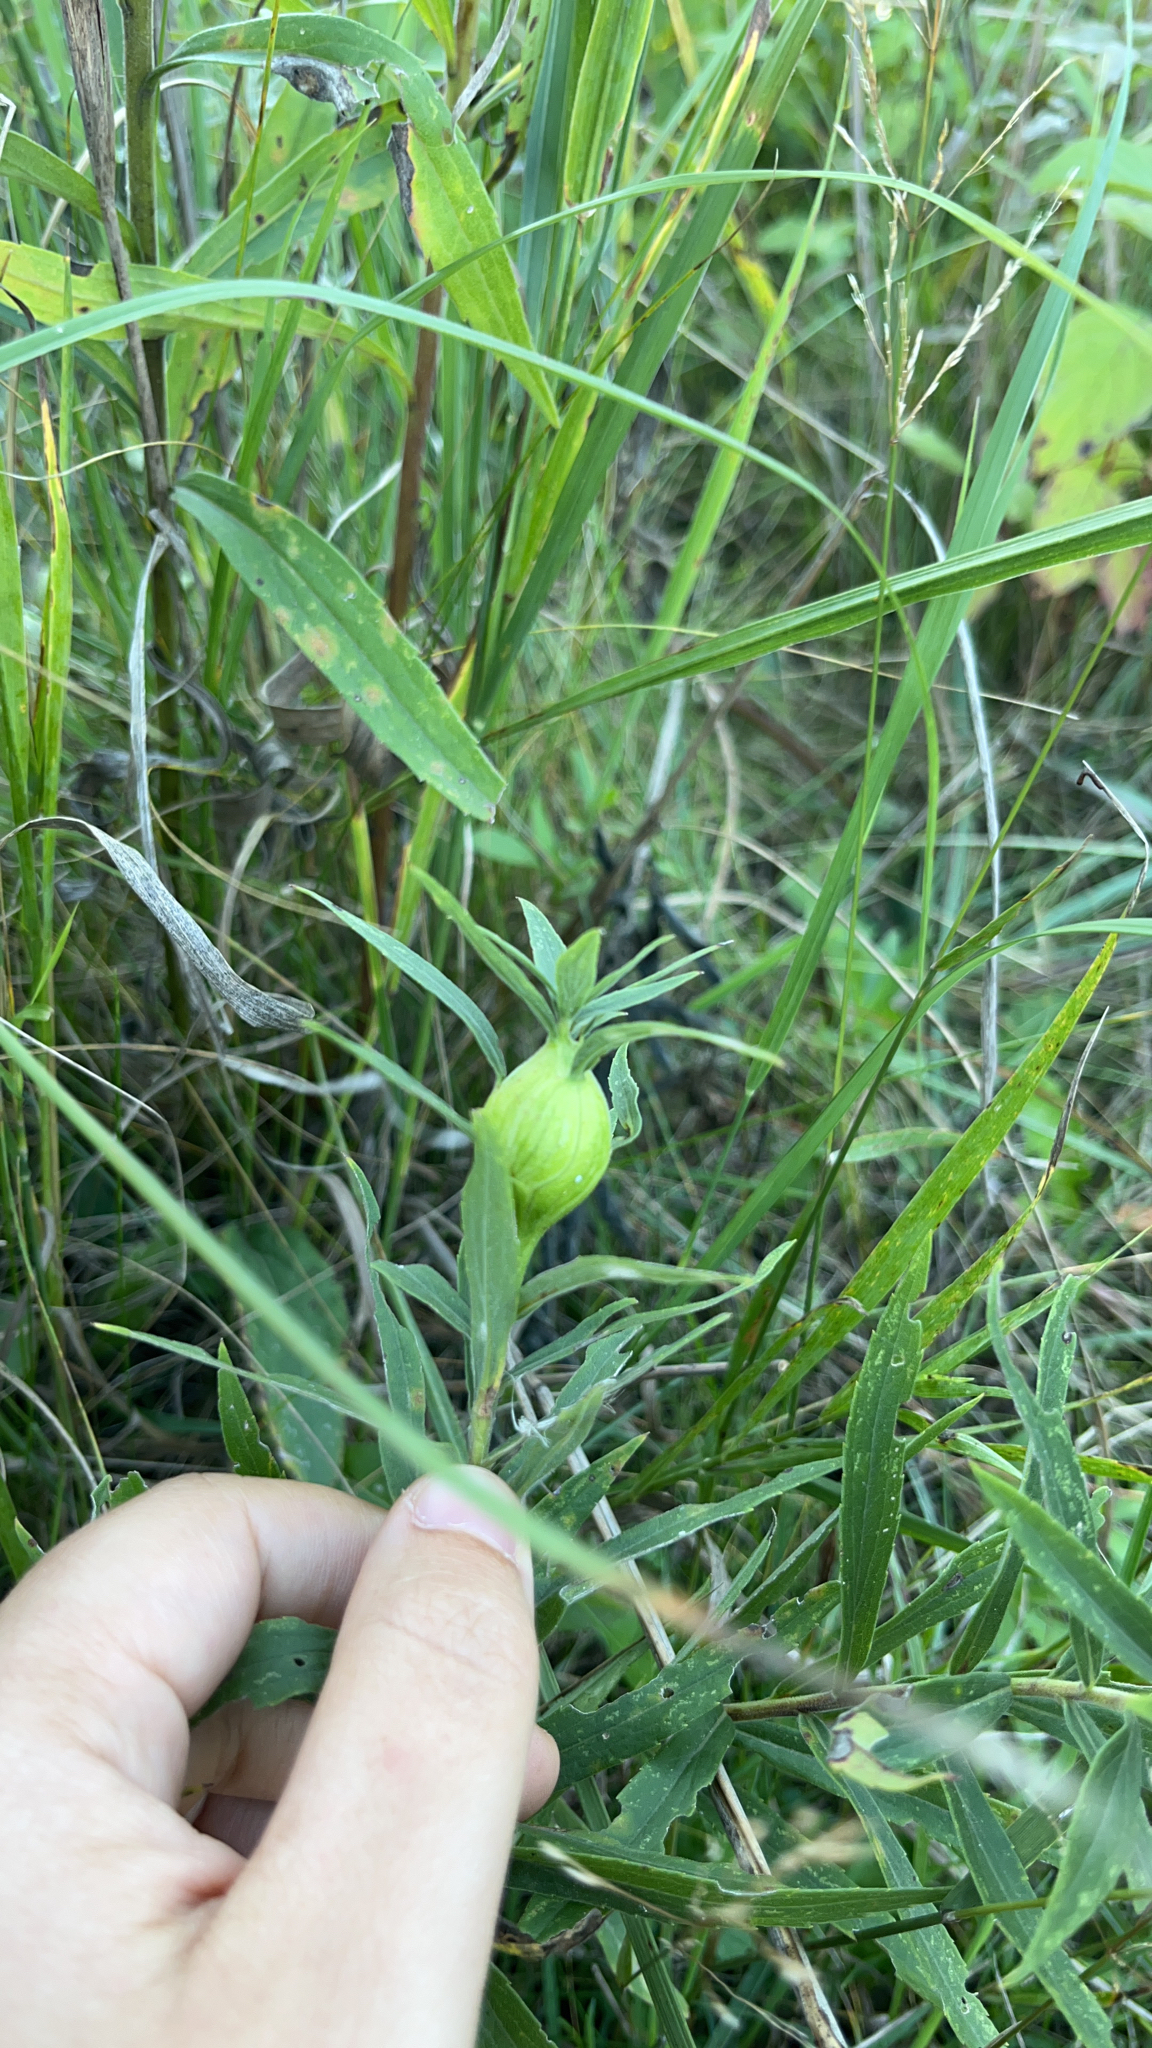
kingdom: Animalia
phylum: Arthropoda
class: Insecta
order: Diptera
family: Tephritidae
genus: Eurosta
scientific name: Eurosta solidaginis
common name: Goldenrod gall fly
